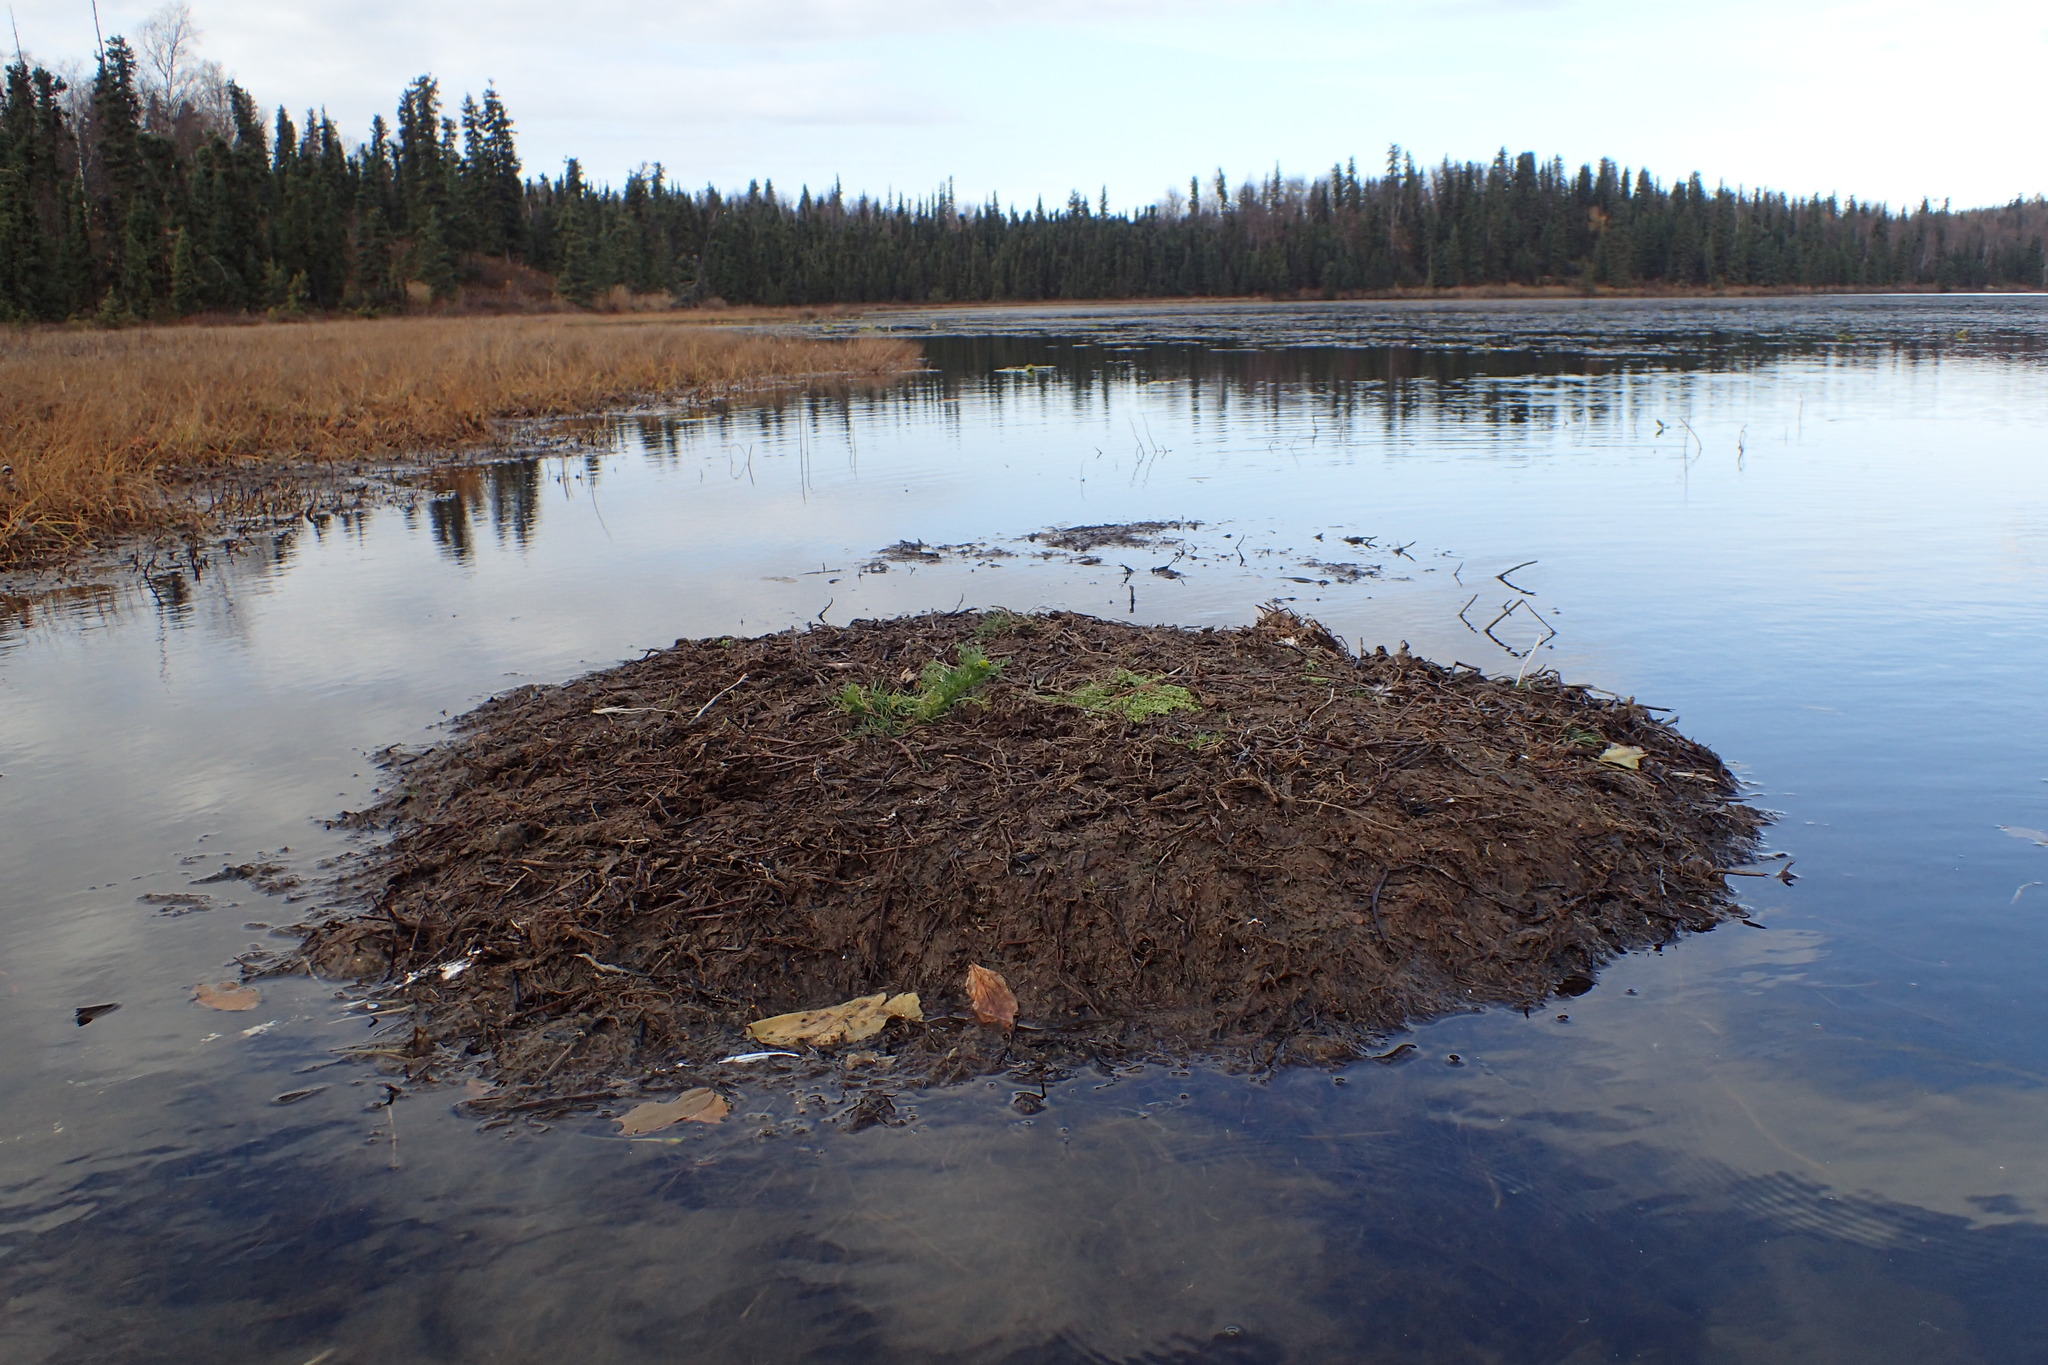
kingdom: Plantae
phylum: Tracheophyta
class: Magnoliopsida
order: Asterales
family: Asteraceae
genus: Matricaria
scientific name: Matricaria discoidea
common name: Disc mayweed
